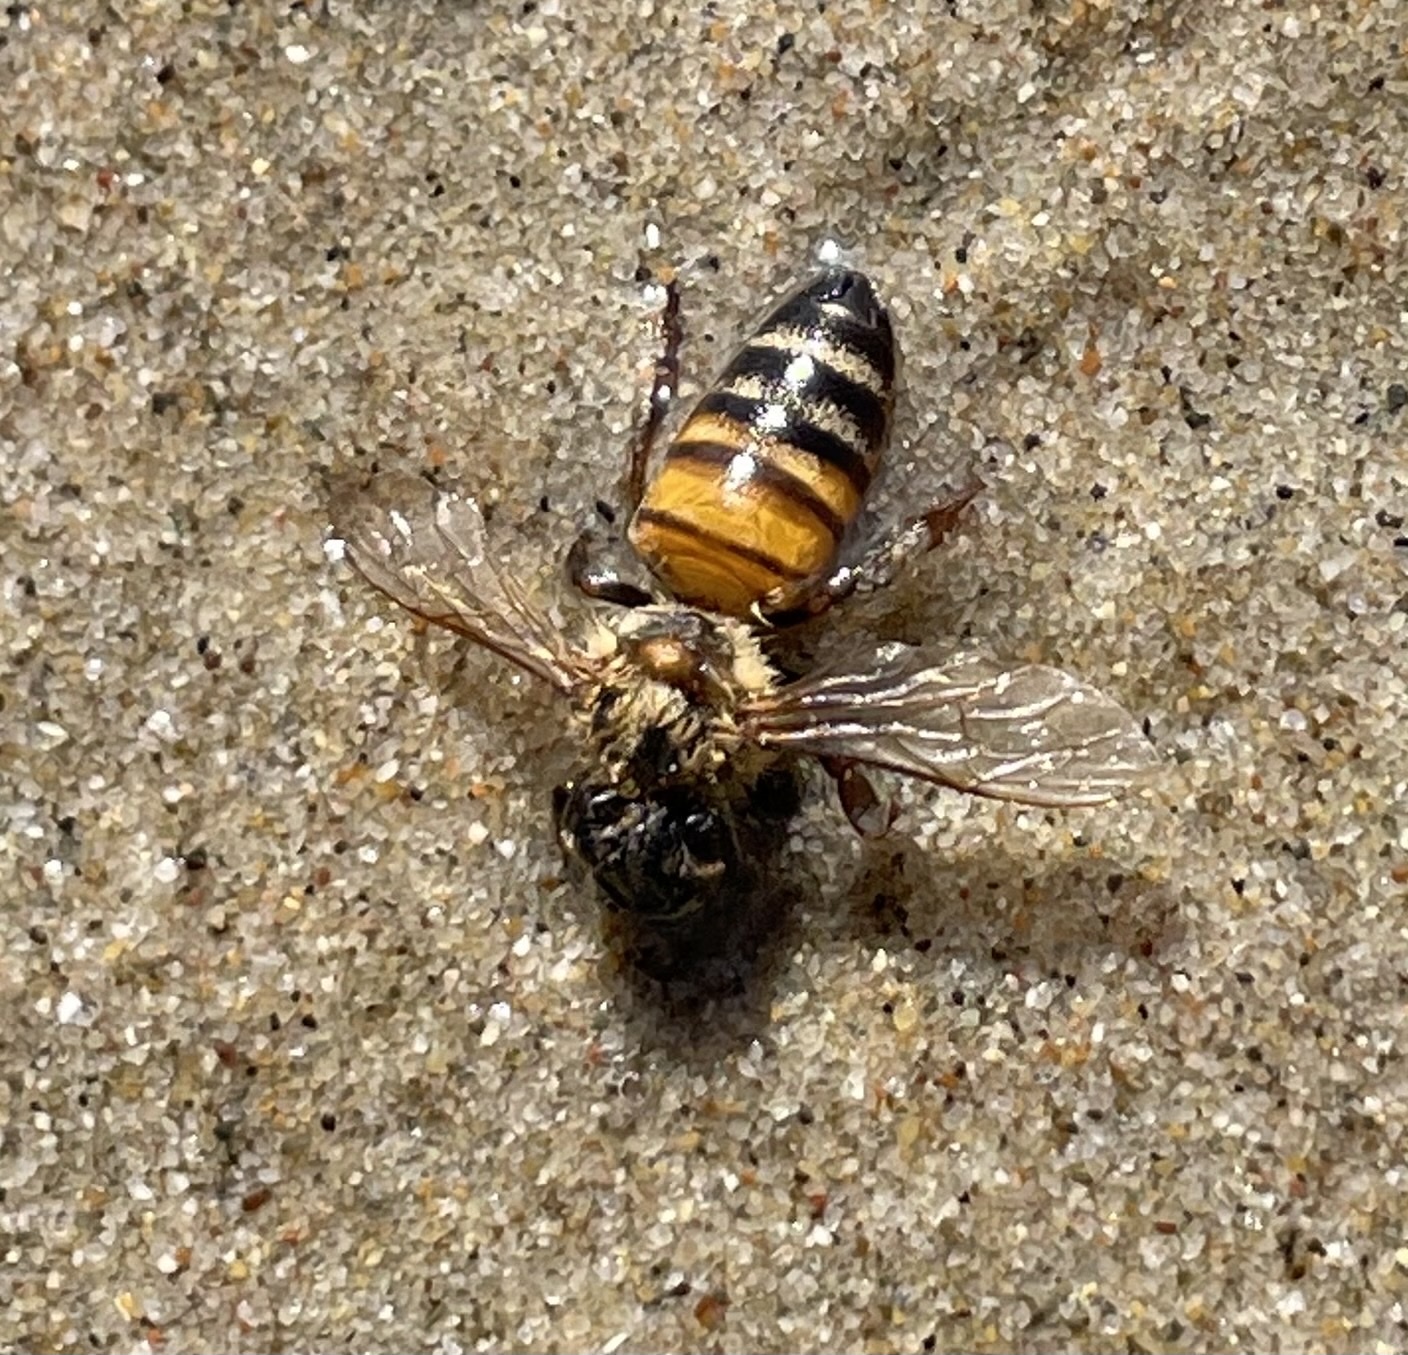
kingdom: Animalia
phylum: Arthropoda
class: Insecta
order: Hymenoptera
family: Apidae
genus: Apis
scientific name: Apis mellifera
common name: Honey bee
